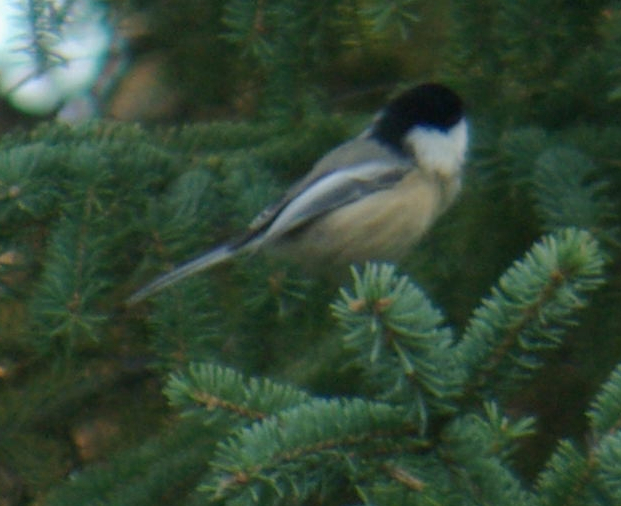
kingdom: Animalia
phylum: Chordata
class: Aves
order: Passeriformes
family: Paridae
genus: Poecile
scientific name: Poecile atricapillus
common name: Black-capped chickadee
